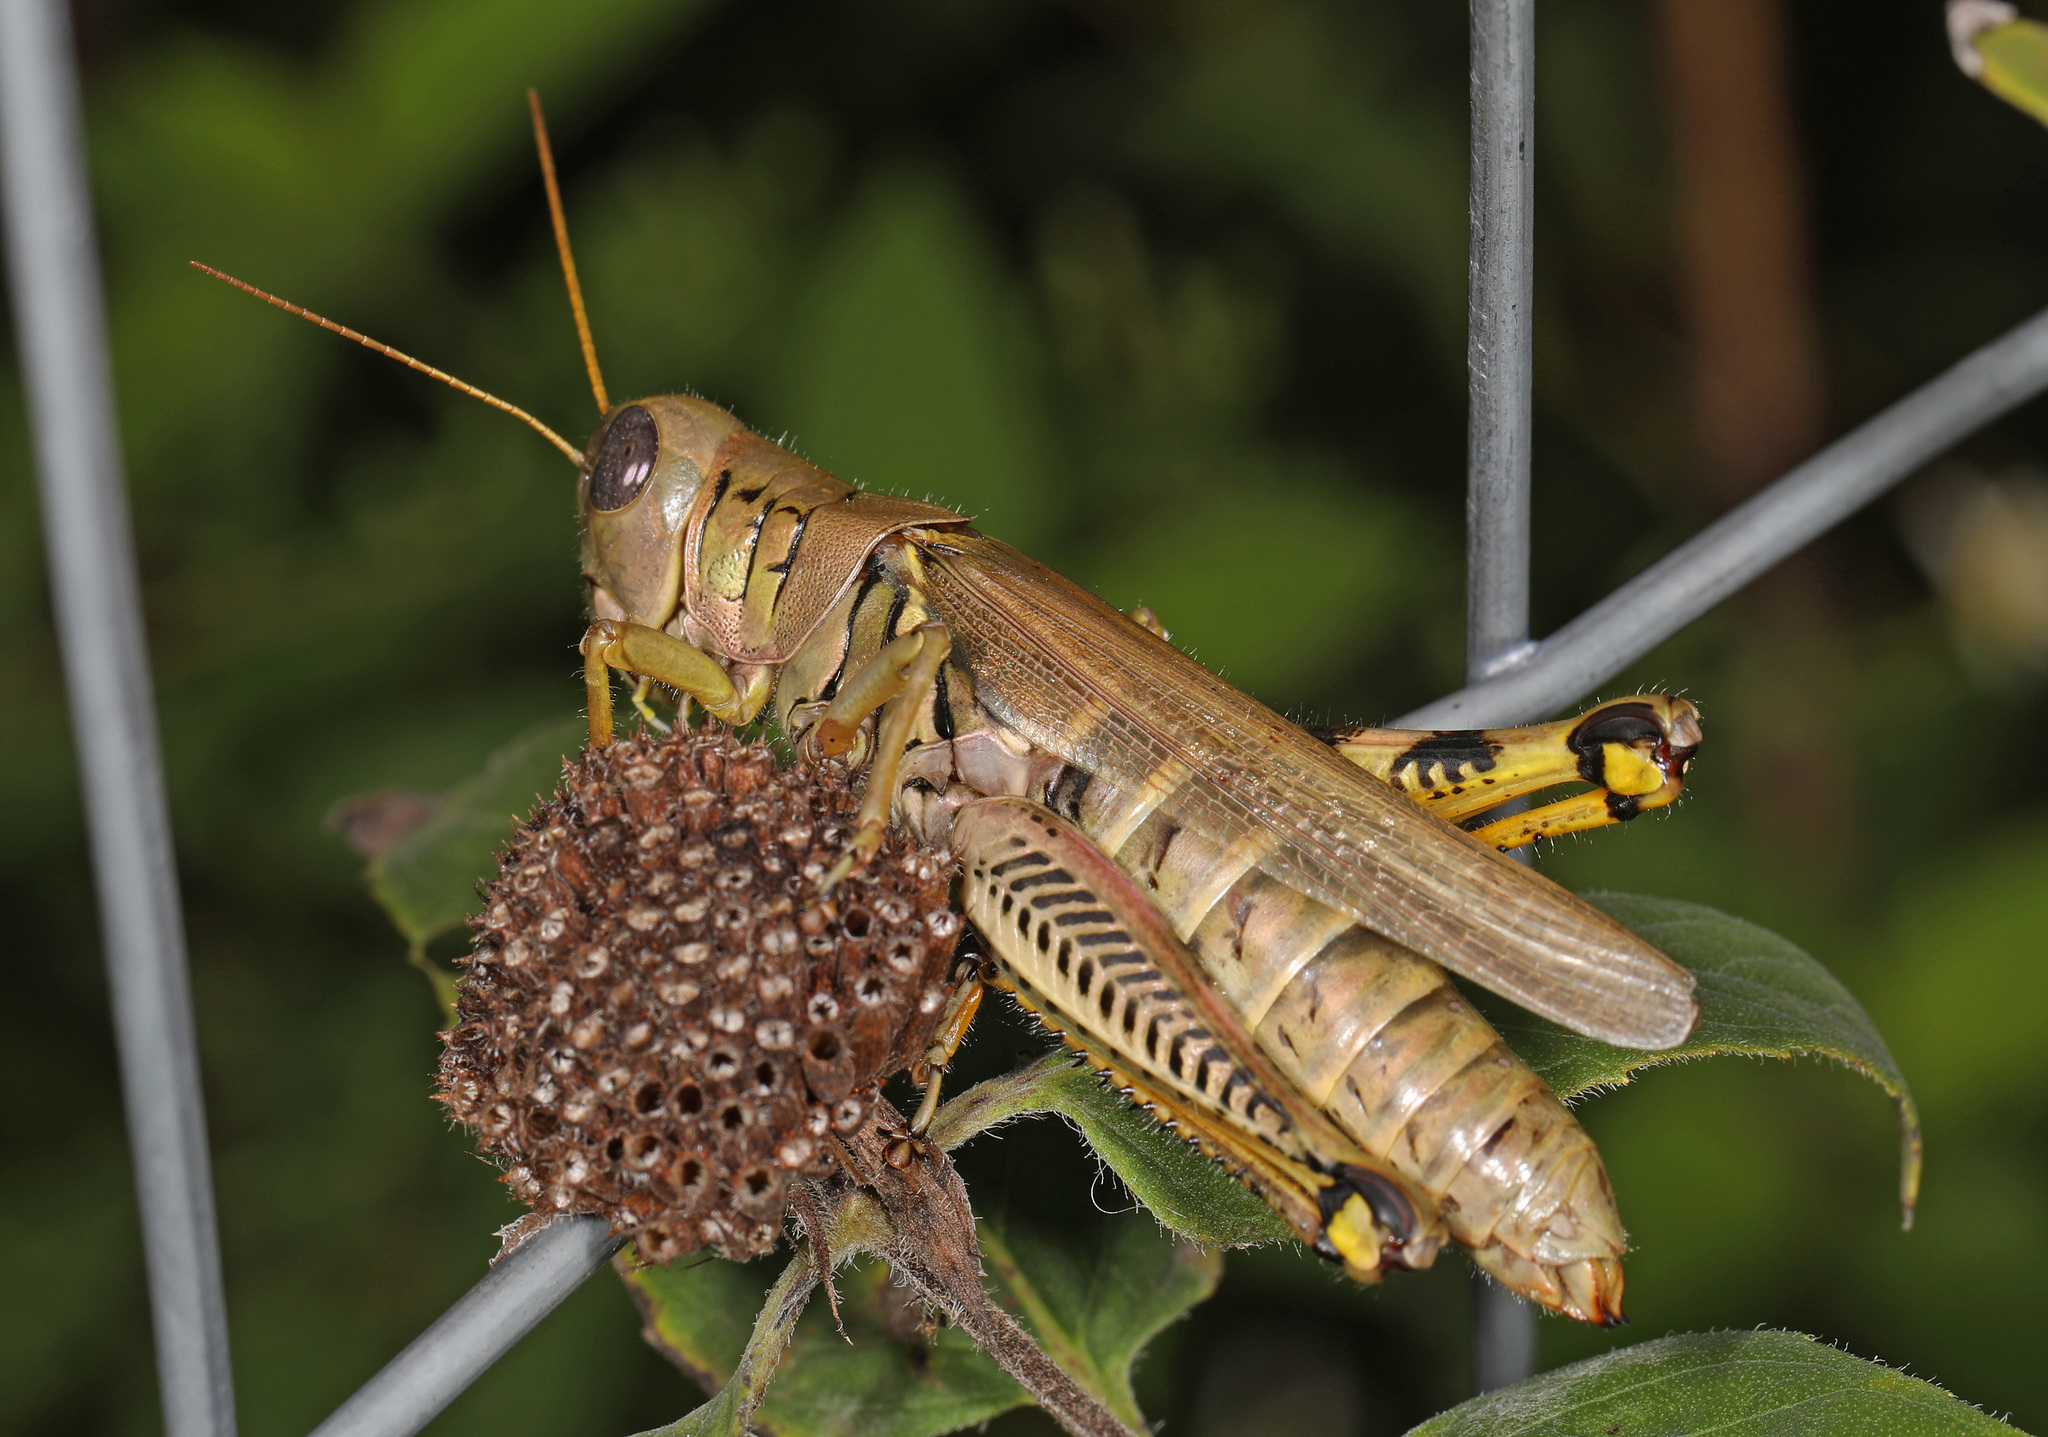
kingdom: Animalia
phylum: Arthropoda
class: Insecta
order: Orthoptera
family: Acrididae
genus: Melanoplus
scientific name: Melanoplus differentialis
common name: Differential grasshopper
